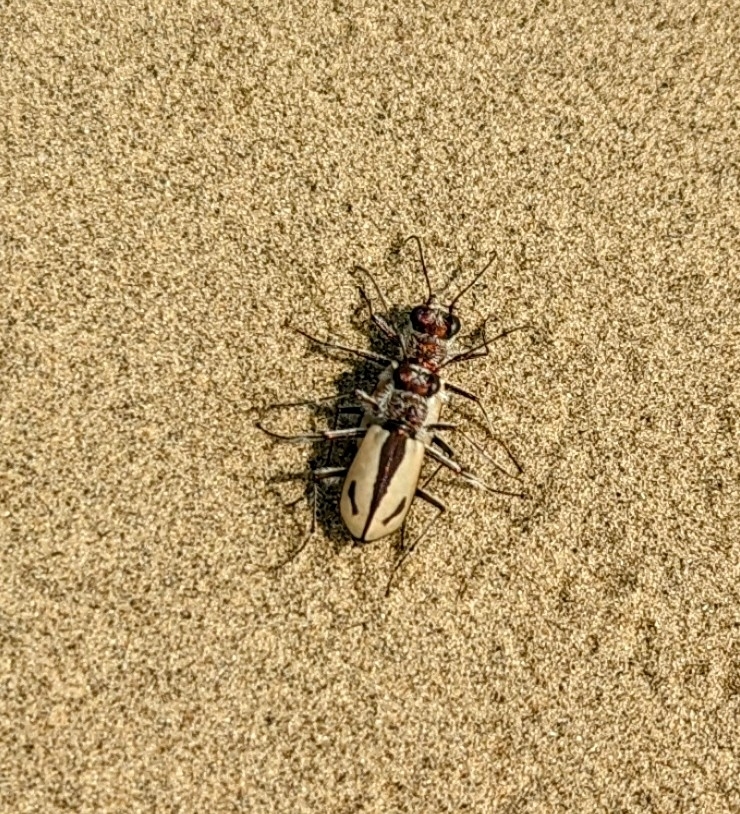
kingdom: Animalia
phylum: Arthropoda
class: Insecta
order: Coleoptera
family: Carabidae
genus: Cicindela
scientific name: Cicindela limbata
